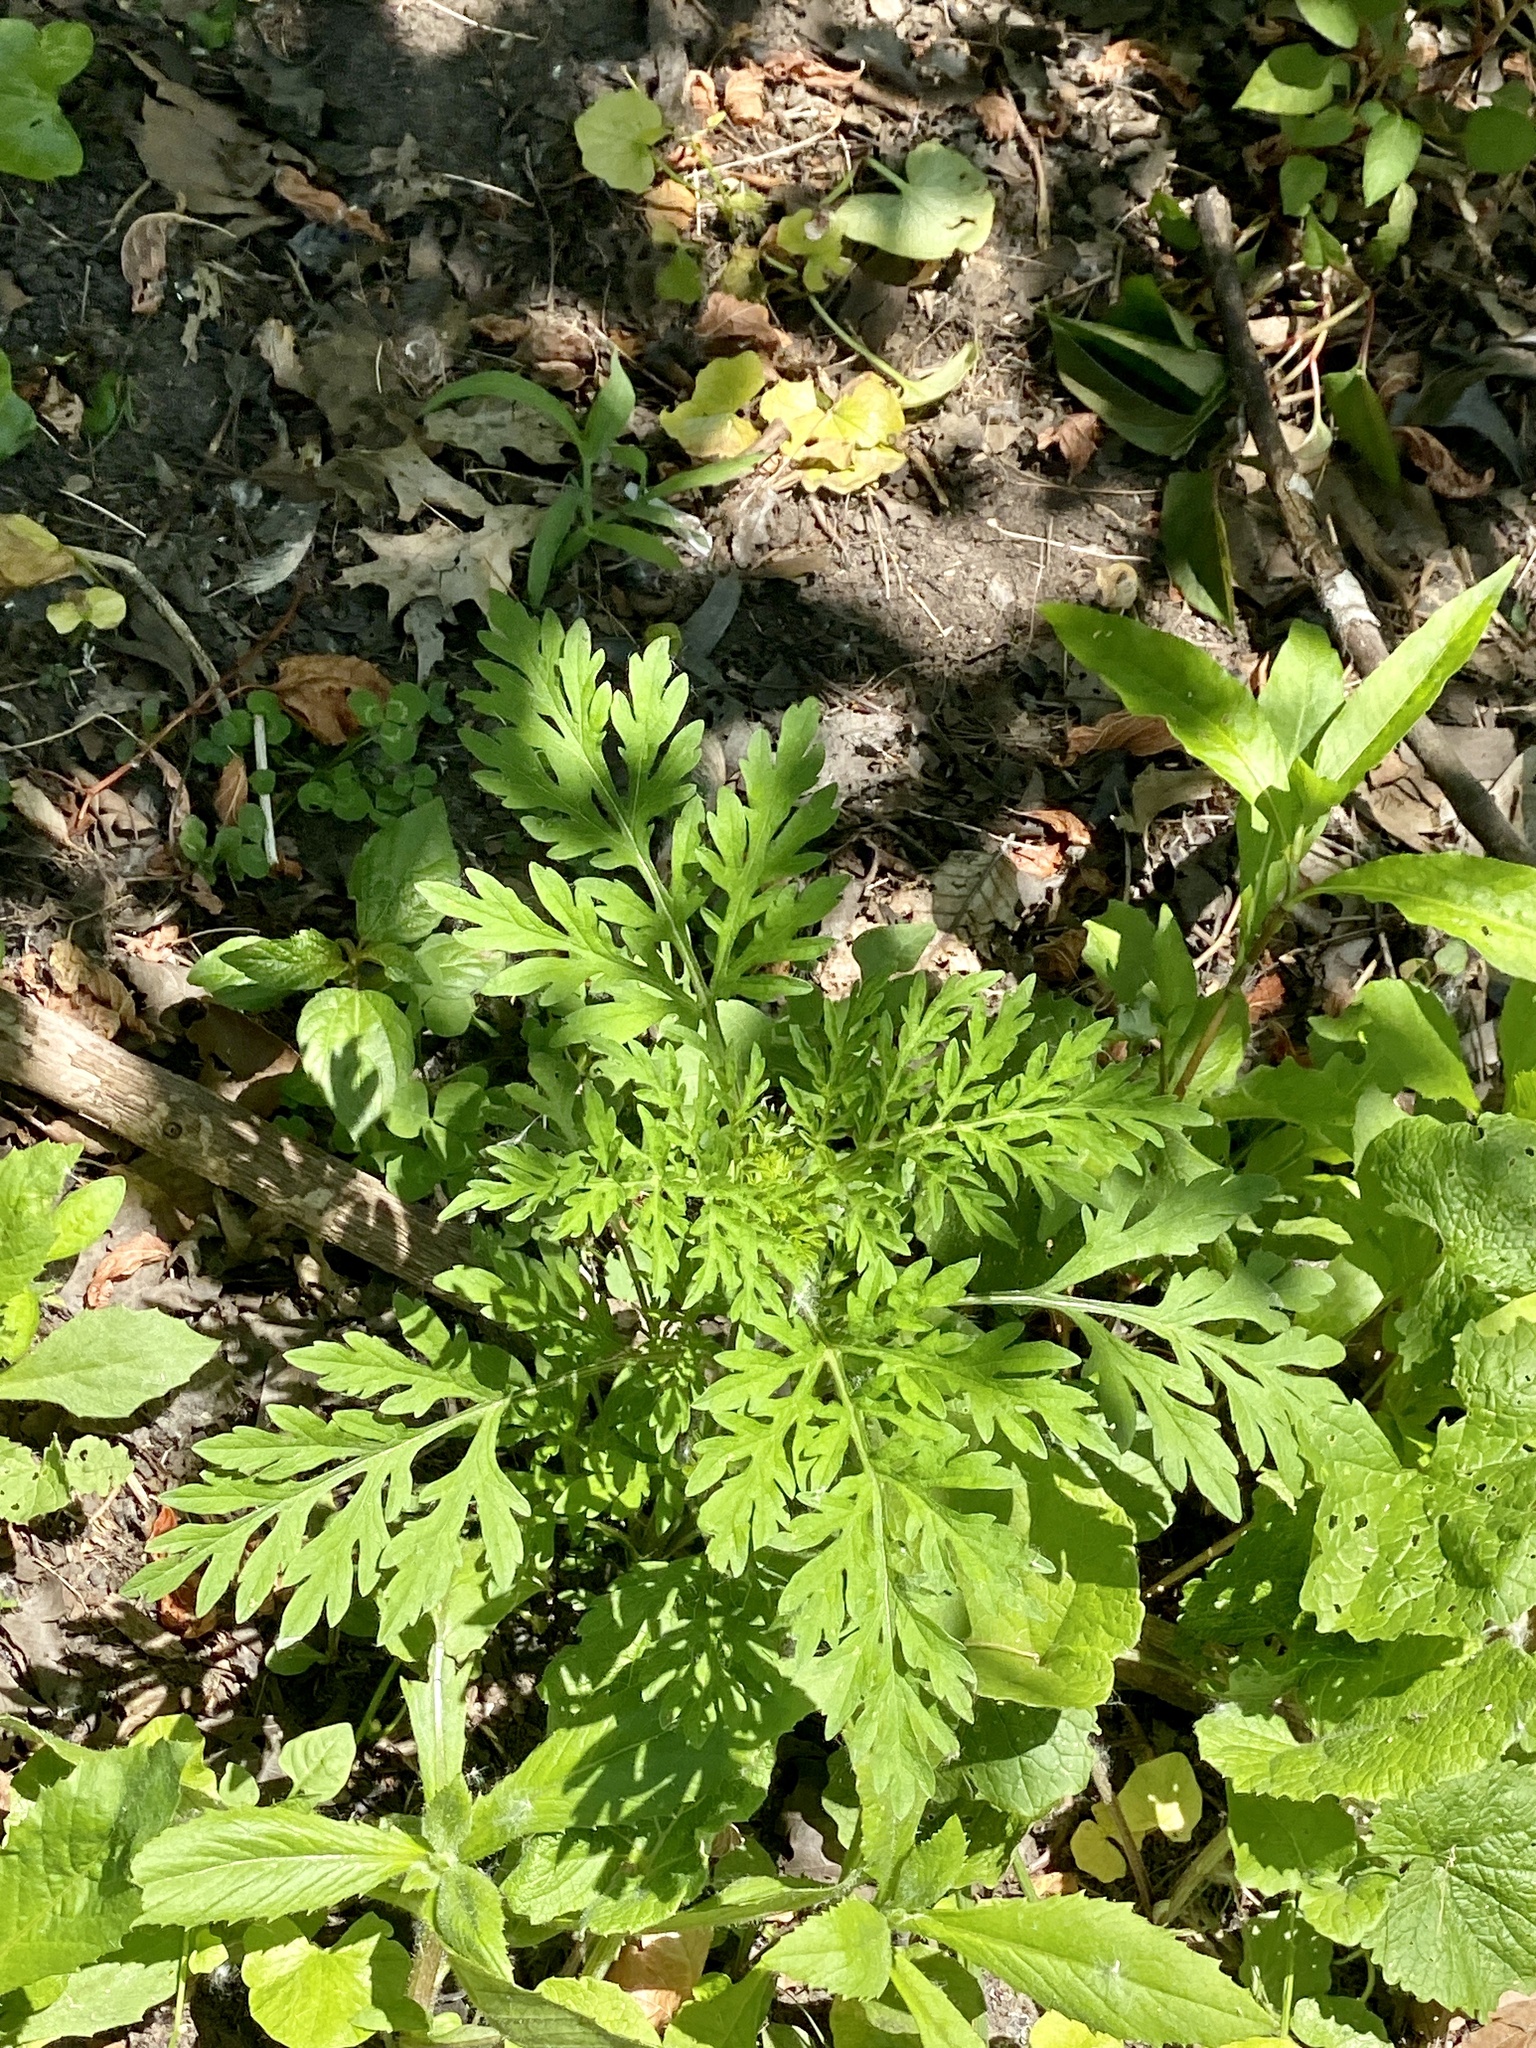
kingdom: Plantae
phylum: Tracheophyta
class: Magnoliopsida
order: Asterales
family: Asteraceae
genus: Ambrosia
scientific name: Ambrosia artemisiifolia
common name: Annual ragweed
